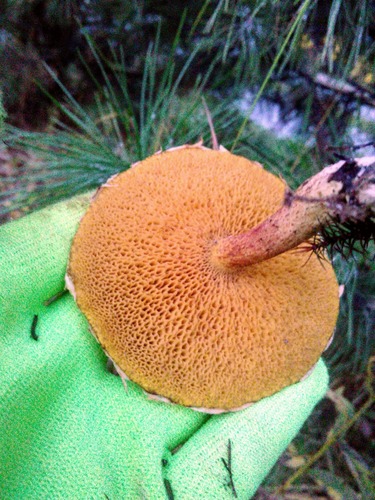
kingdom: Fungi
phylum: Basidiomycota
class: Agaricomycetes
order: Boletales
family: Suillaceae
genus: Suillus
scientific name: Suillus americanus
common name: Chicken fat mushroom
